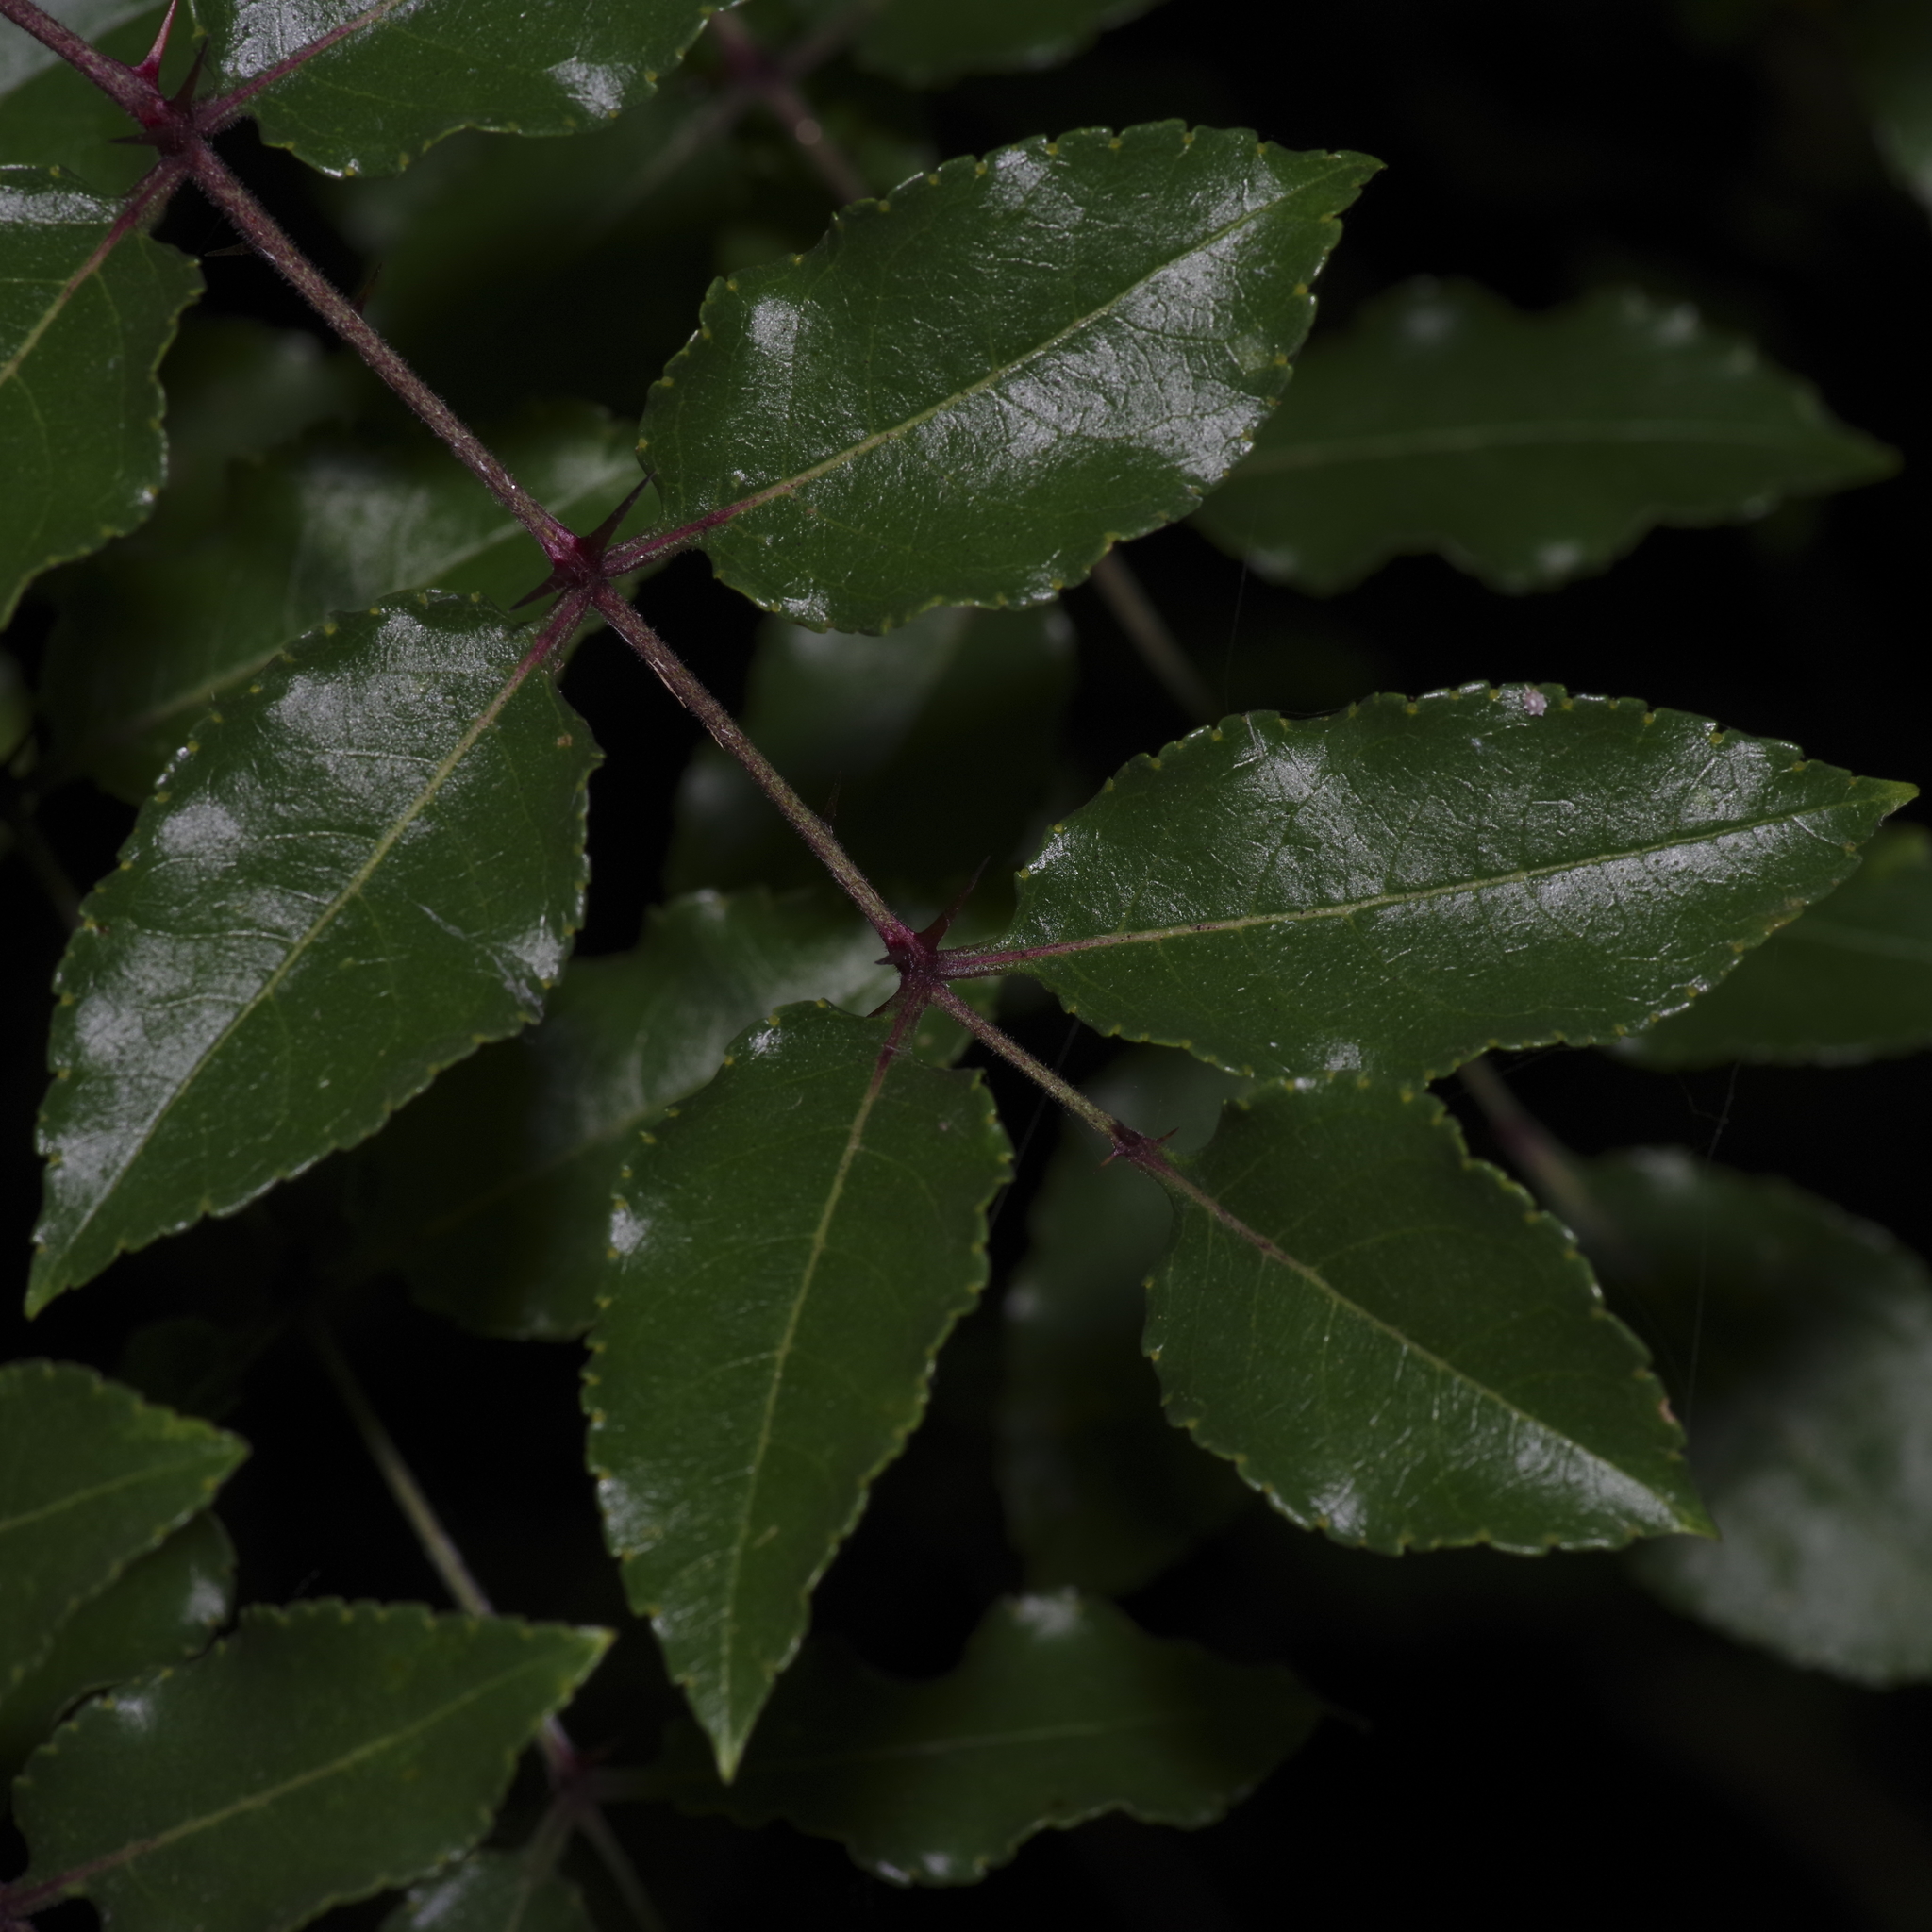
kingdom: Plantae
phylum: Tracheophyta
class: Magnoliopsida
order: Sapindales
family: Rutaceae
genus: Zanthoxylum
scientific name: Zanthoxylum clava-herculis
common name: Hercules'-club
